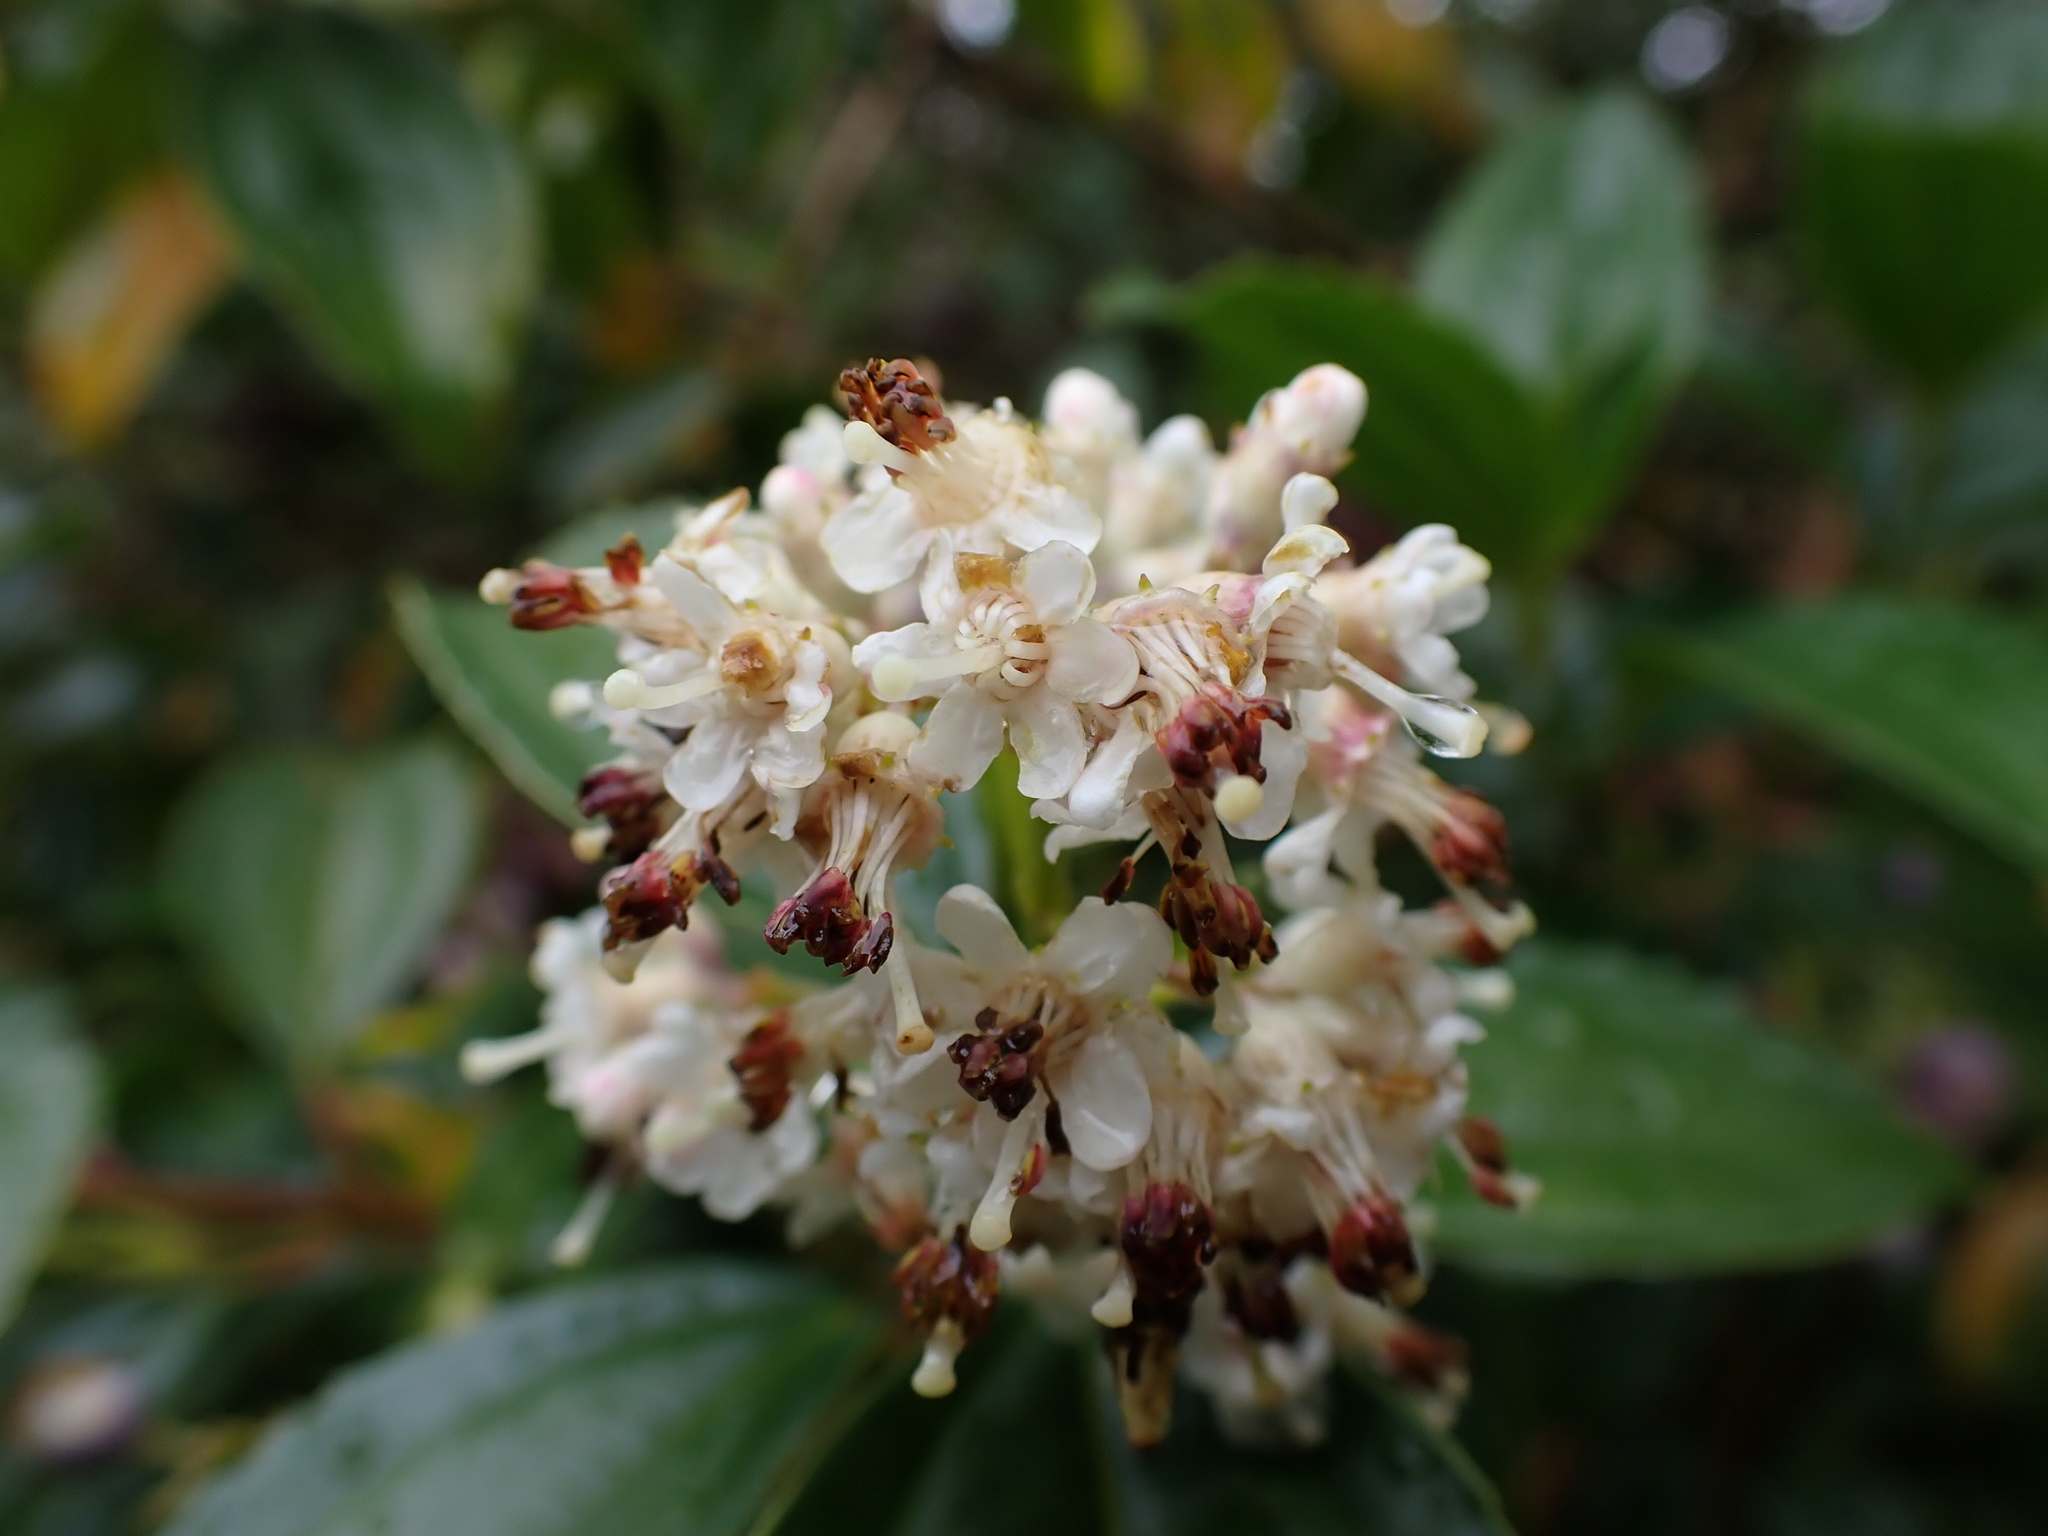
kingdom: Plantae
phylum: Tracheophyta
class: Magnoliopsida
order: Myrtales
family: Melastomataceae
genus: Miconia
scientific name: Miconia crocea
